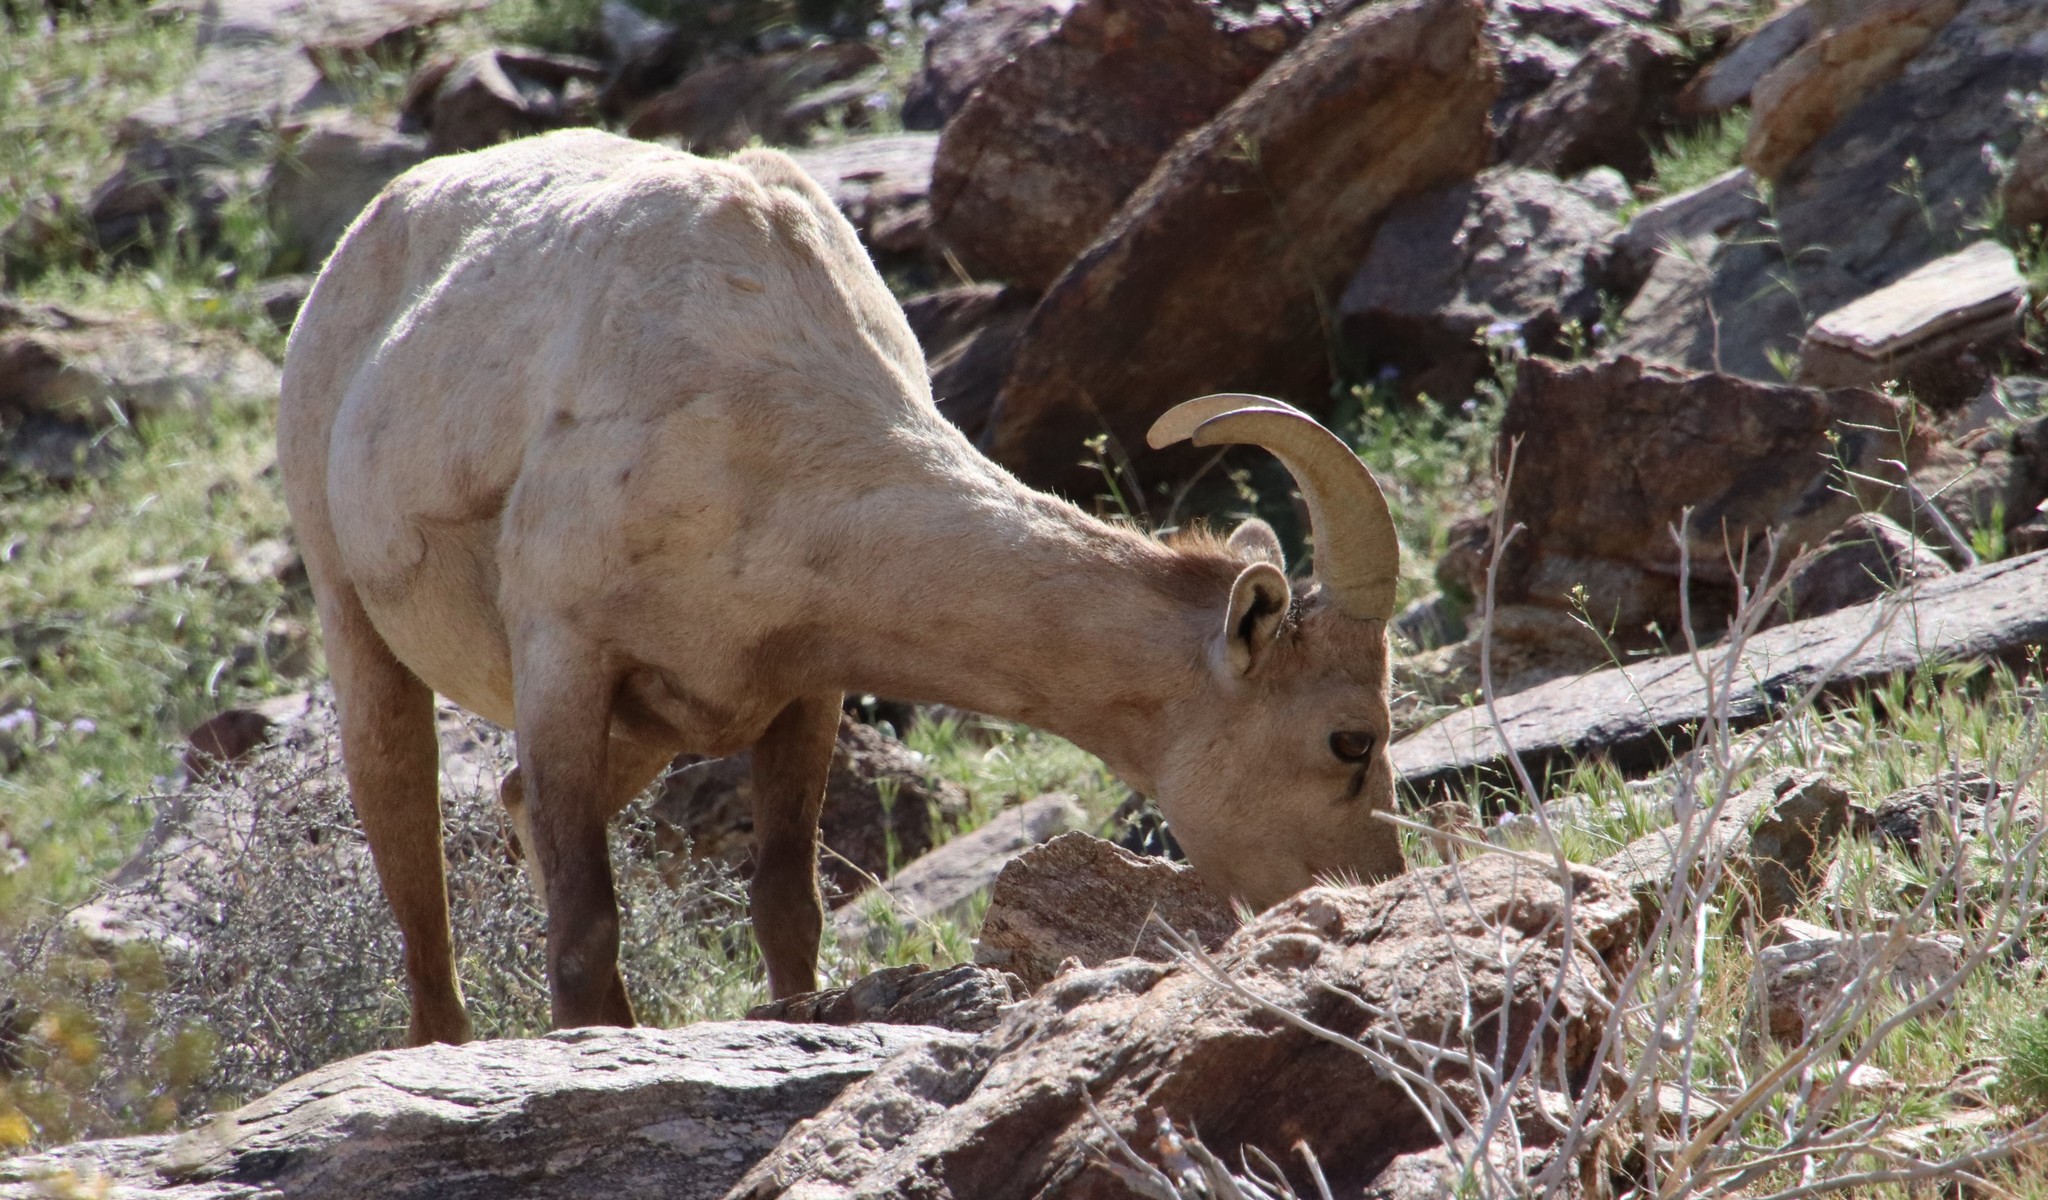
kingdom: Animalia
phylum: Chordata
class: Mammalia
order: Artiodactyla
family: Bovidae
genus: Ovis
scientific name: Ovis canadensis
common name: Bighorn sheep
